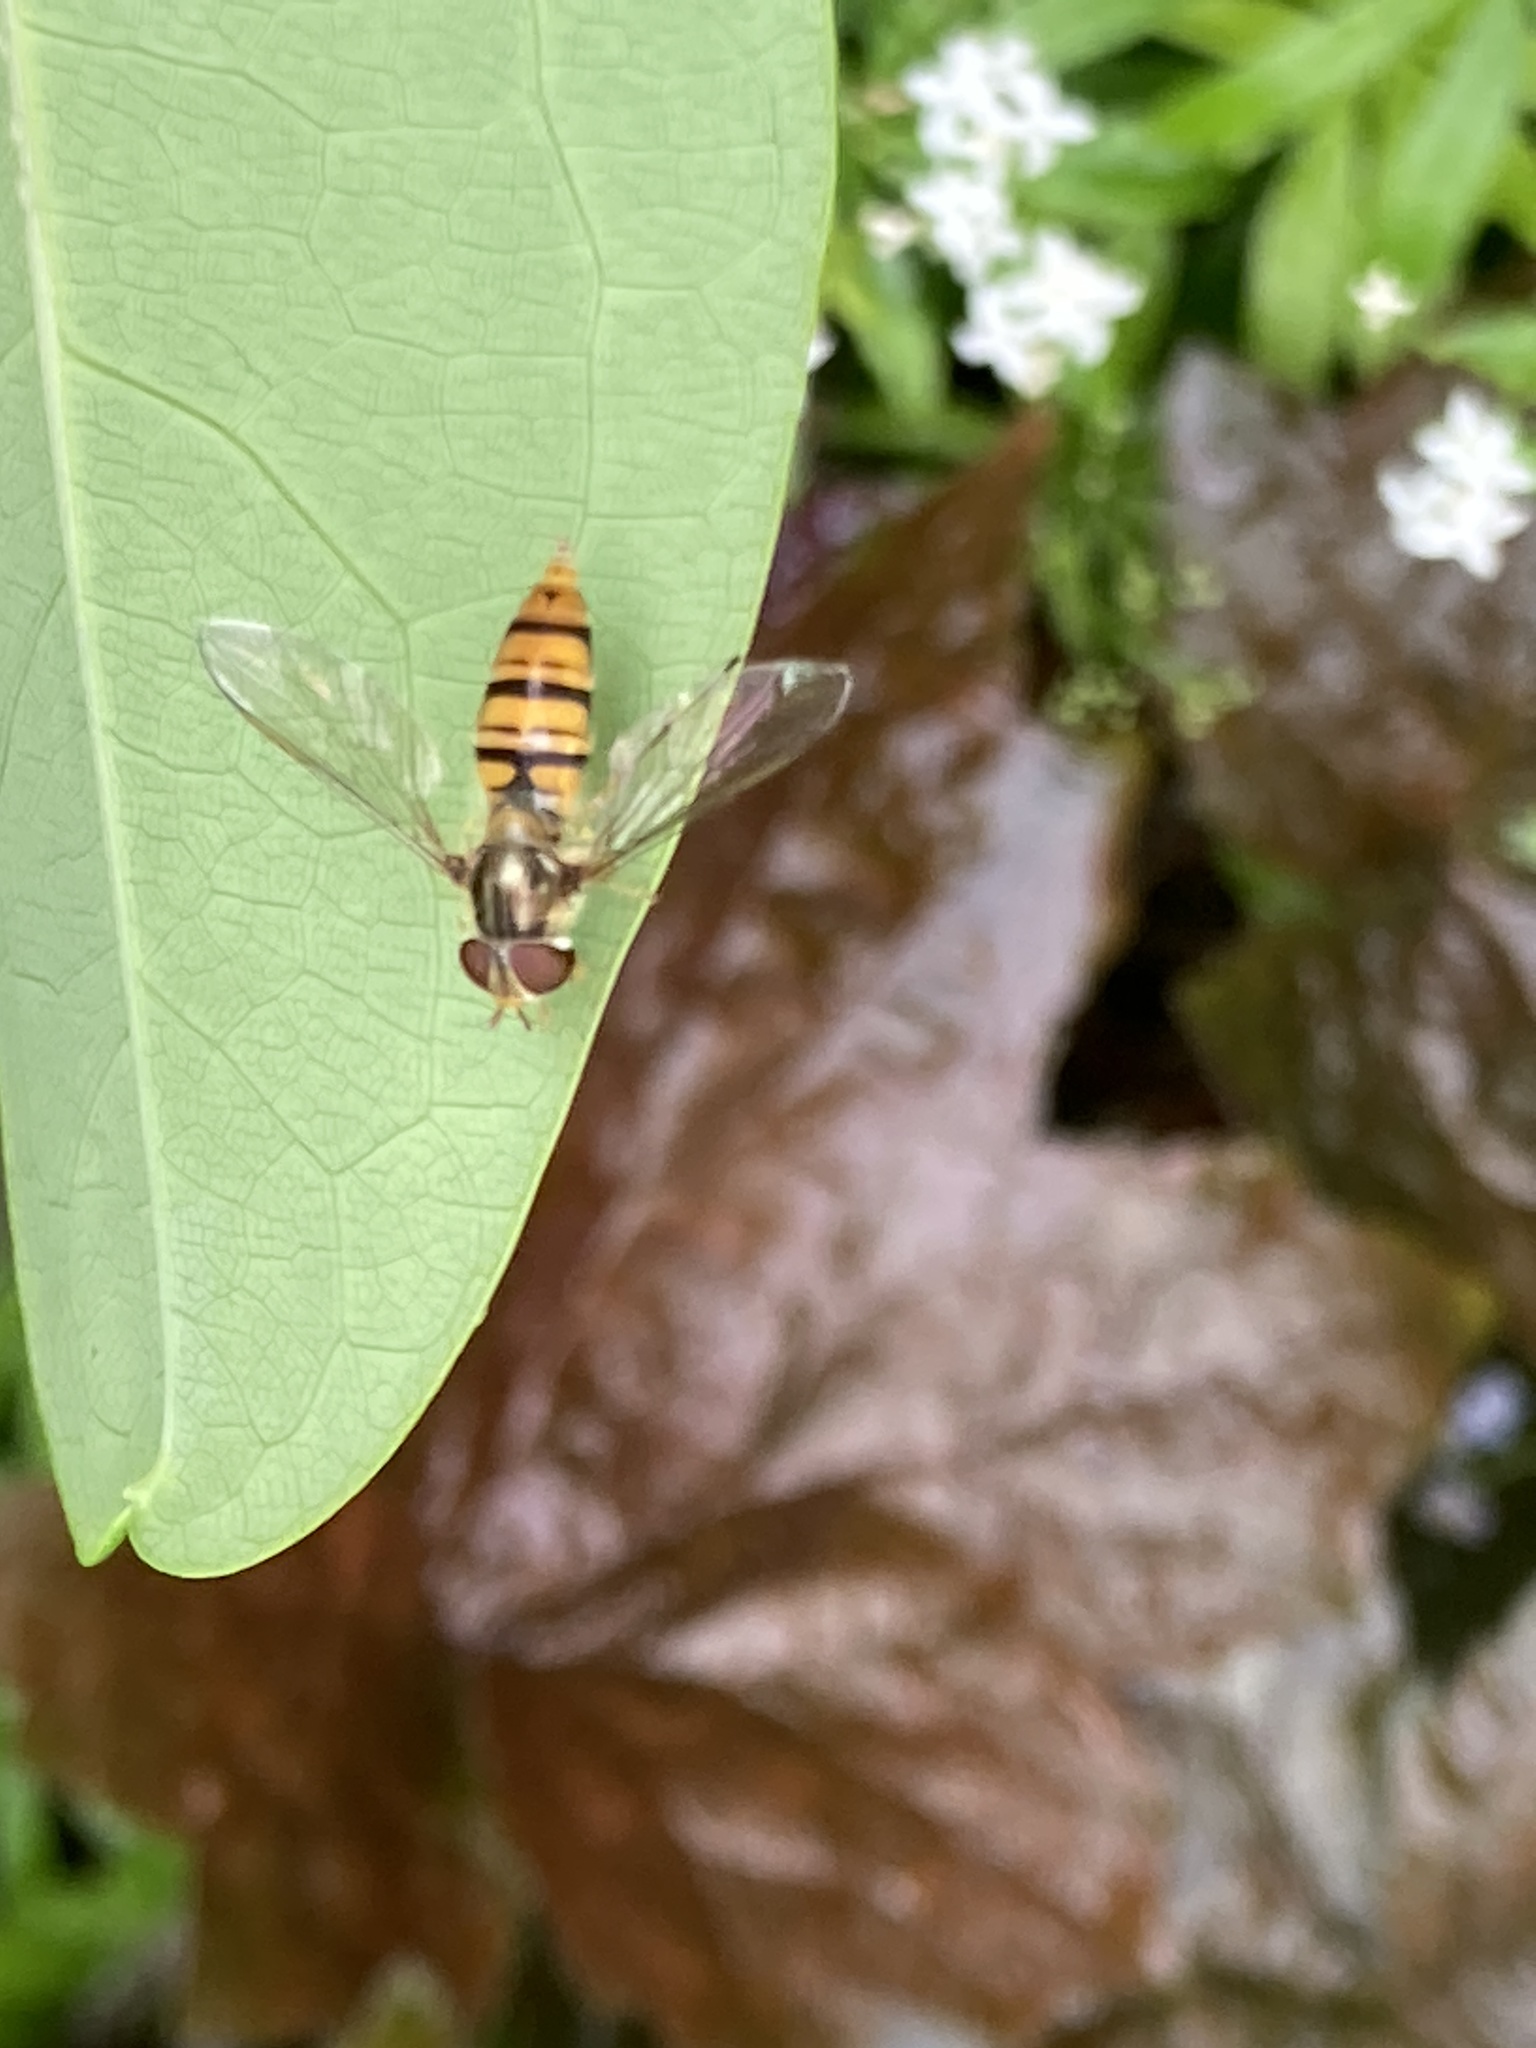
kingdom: Animalia
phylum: Arthropoda
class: Insecta
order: Diptera
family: Syrphidae
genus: Episyrphus
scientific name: Episyrphus balteatus
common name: Marmalade hoverfly
